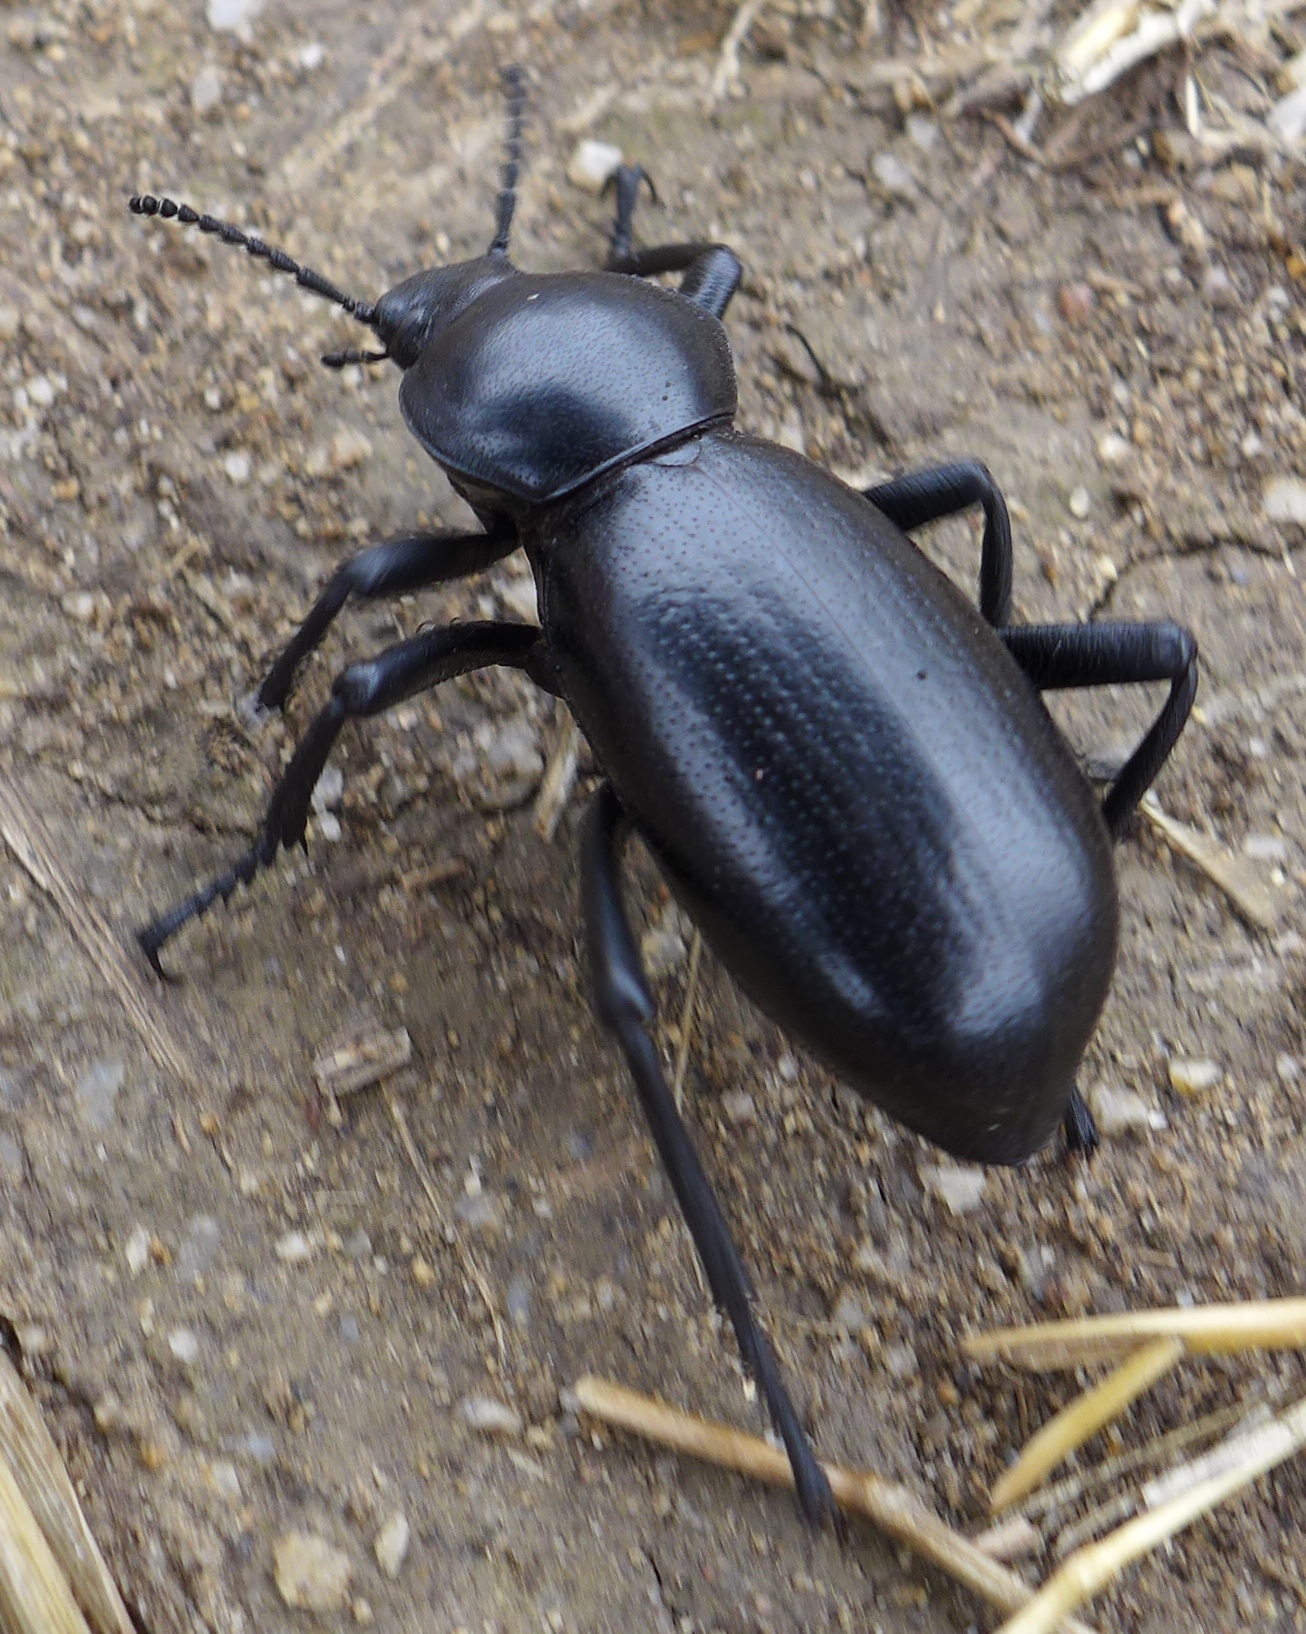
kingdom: Animalia
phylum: Arthropoda
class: Insecta
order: Coleoptera
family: Tenebrionidae
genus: Eleodes
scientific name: Eleodes grandicollis
